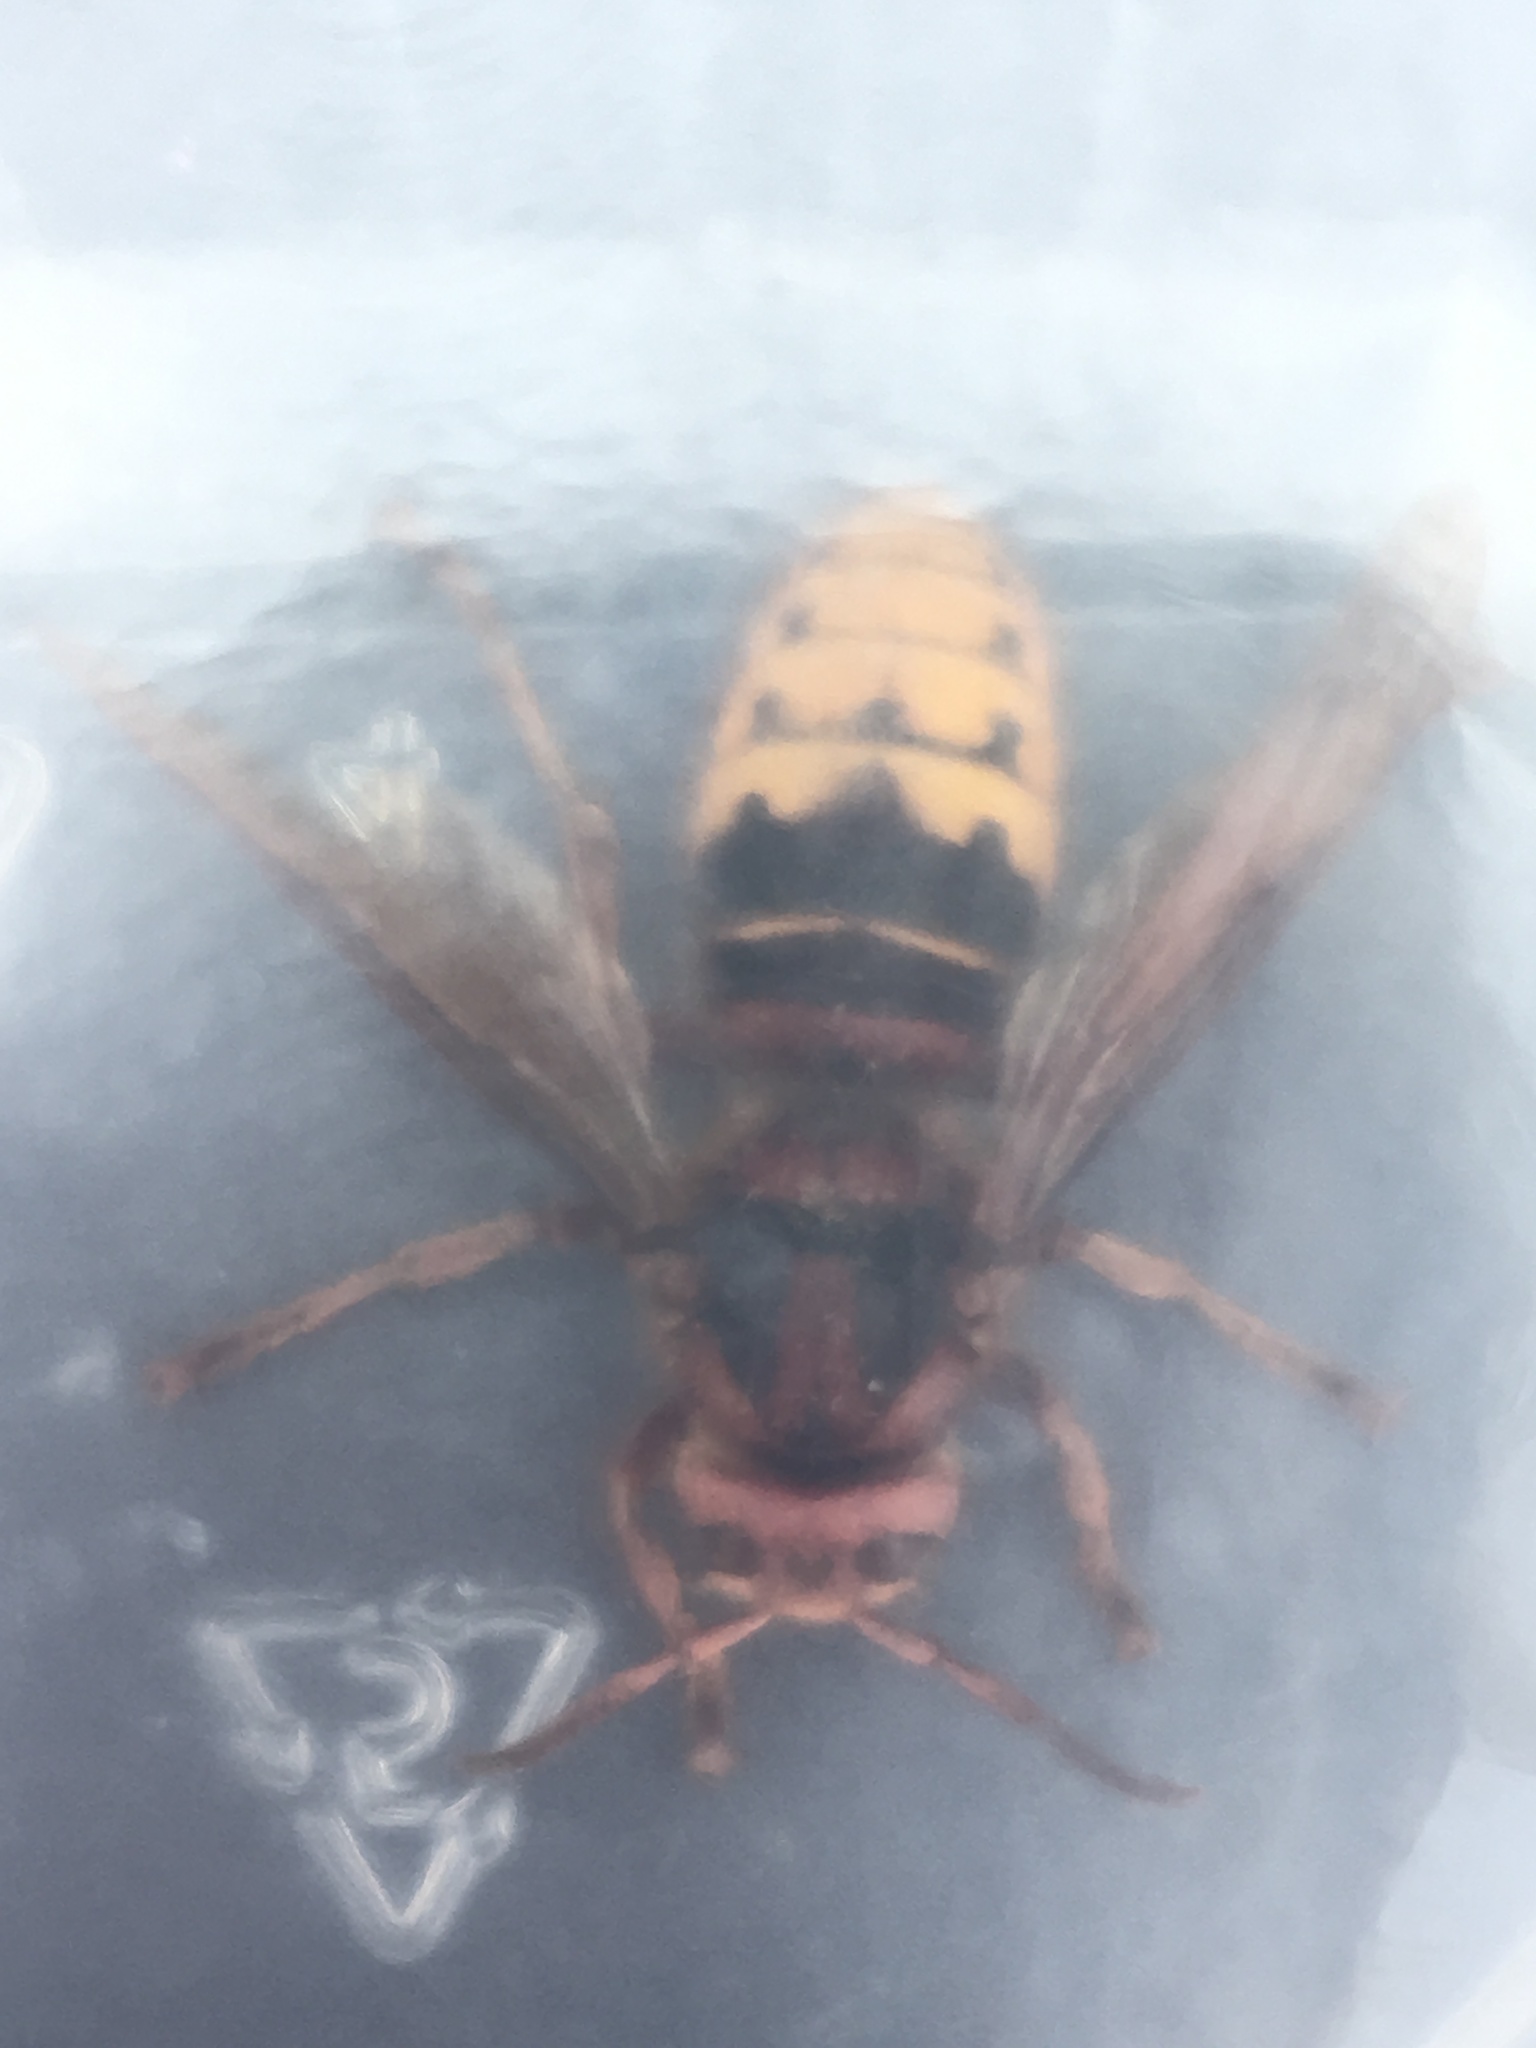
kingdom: Animalia
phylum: Arthropoda
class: Insecta
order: Hymenoptera
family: Vespidae
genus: Vespa
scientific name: Vespa crabro
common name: Hornet
